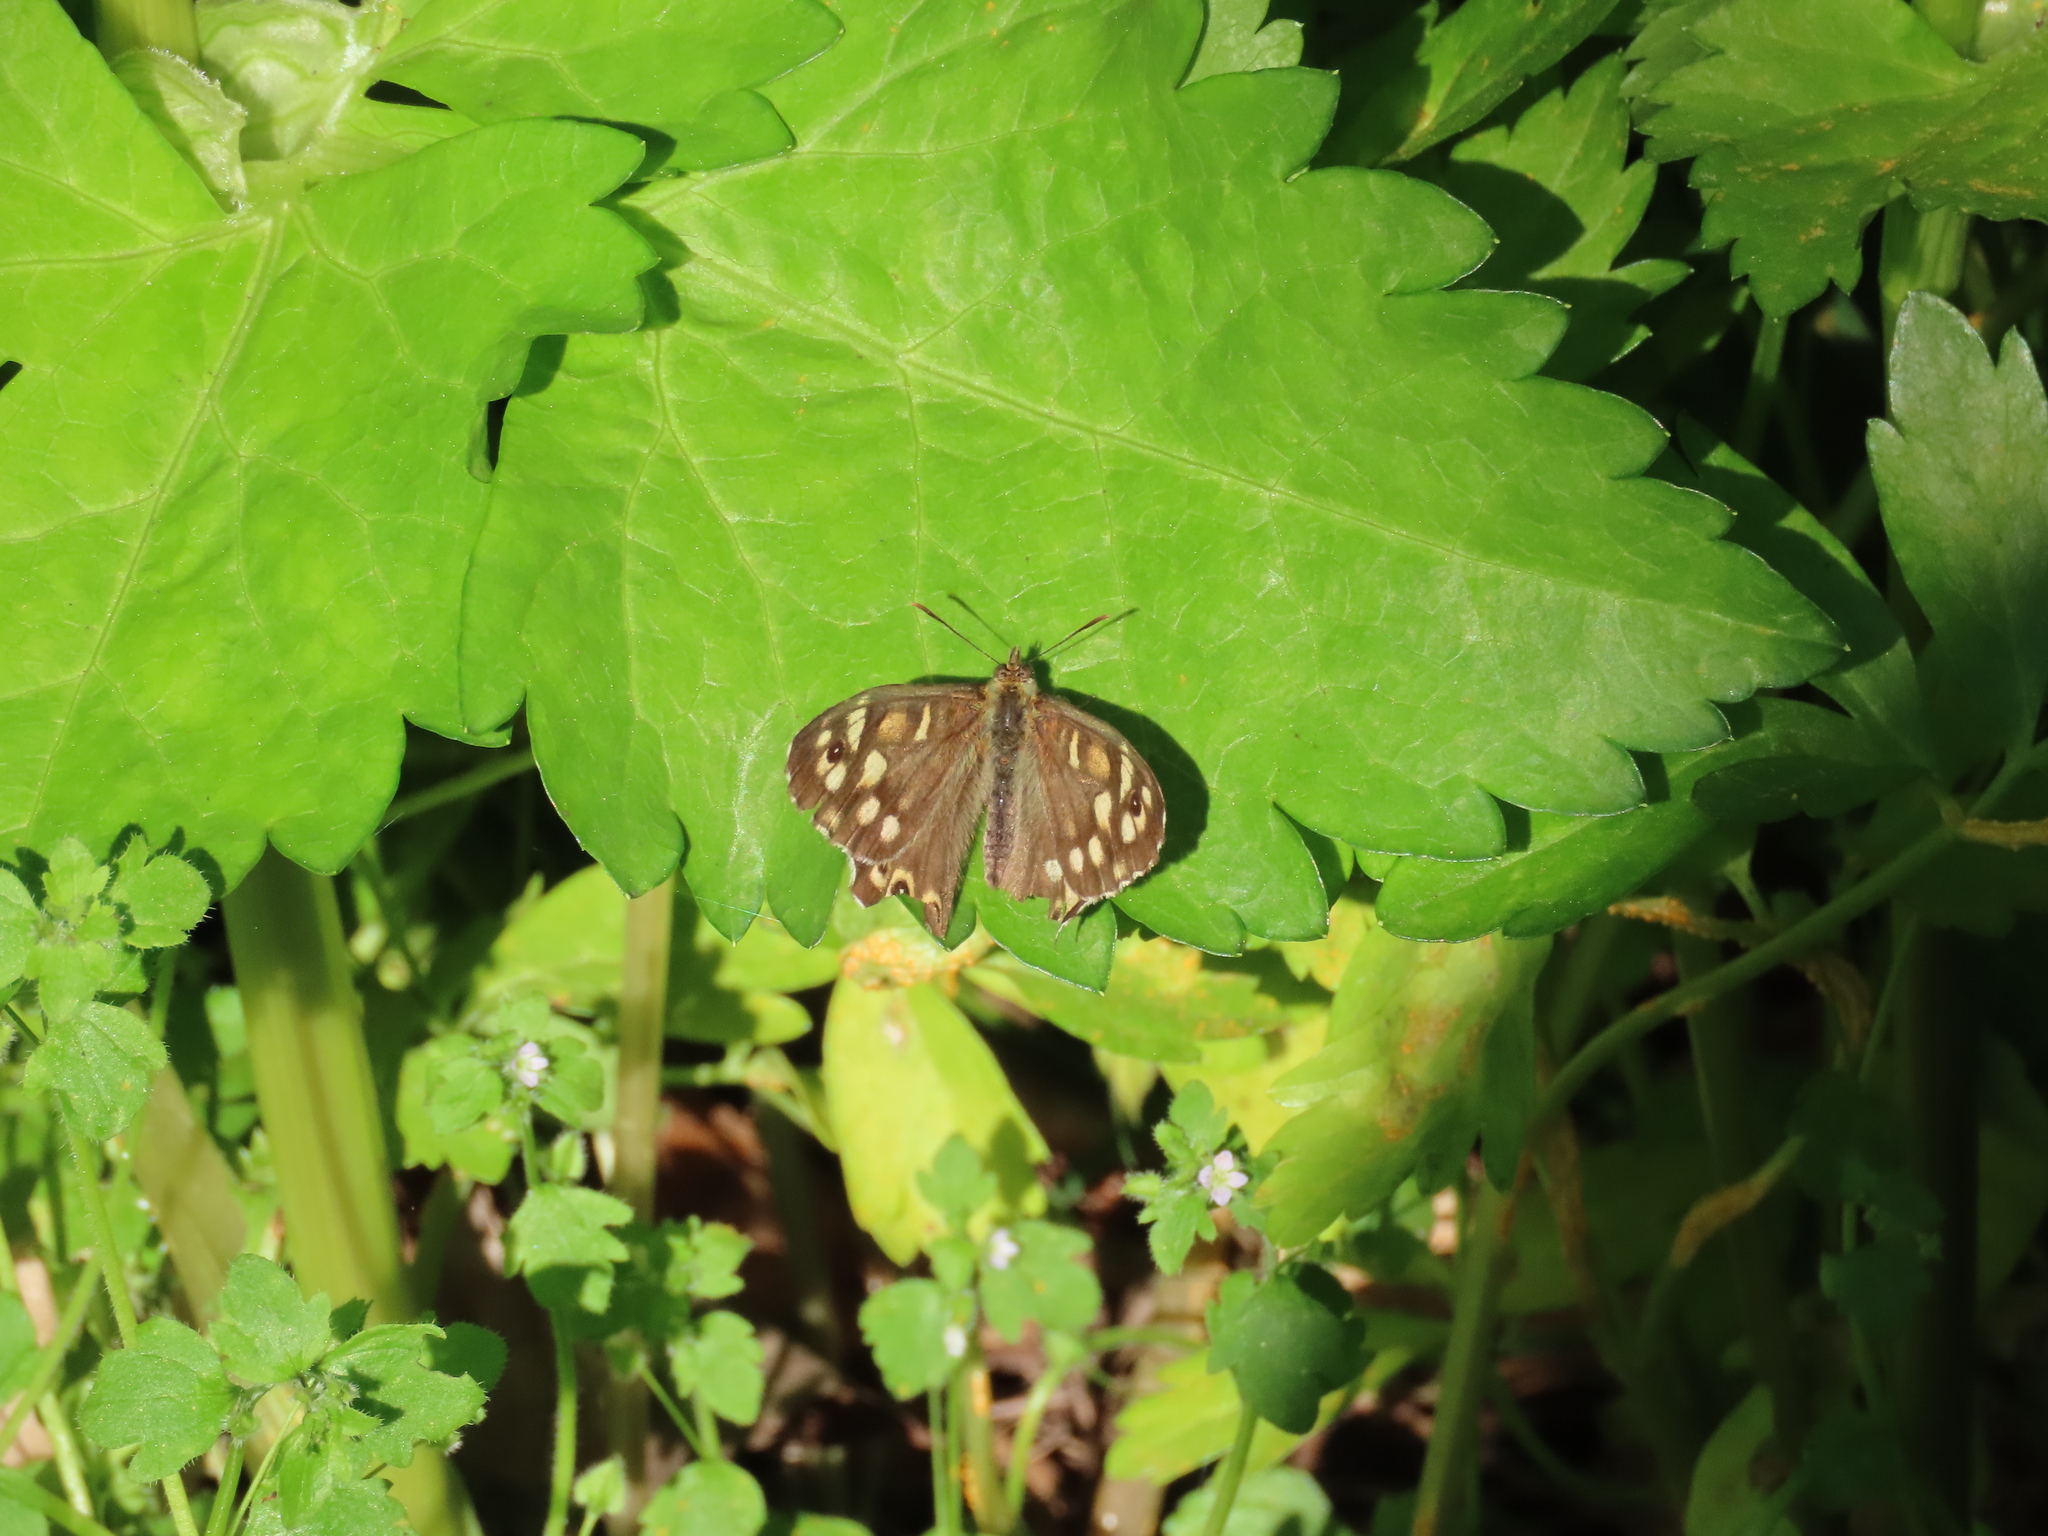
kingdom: Animalia
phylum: Arthropoda
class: Insecta
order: Lepidoptera
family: Nymphalidae
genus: Pararge
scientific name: Pararge aegeria
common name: Speckled wood
